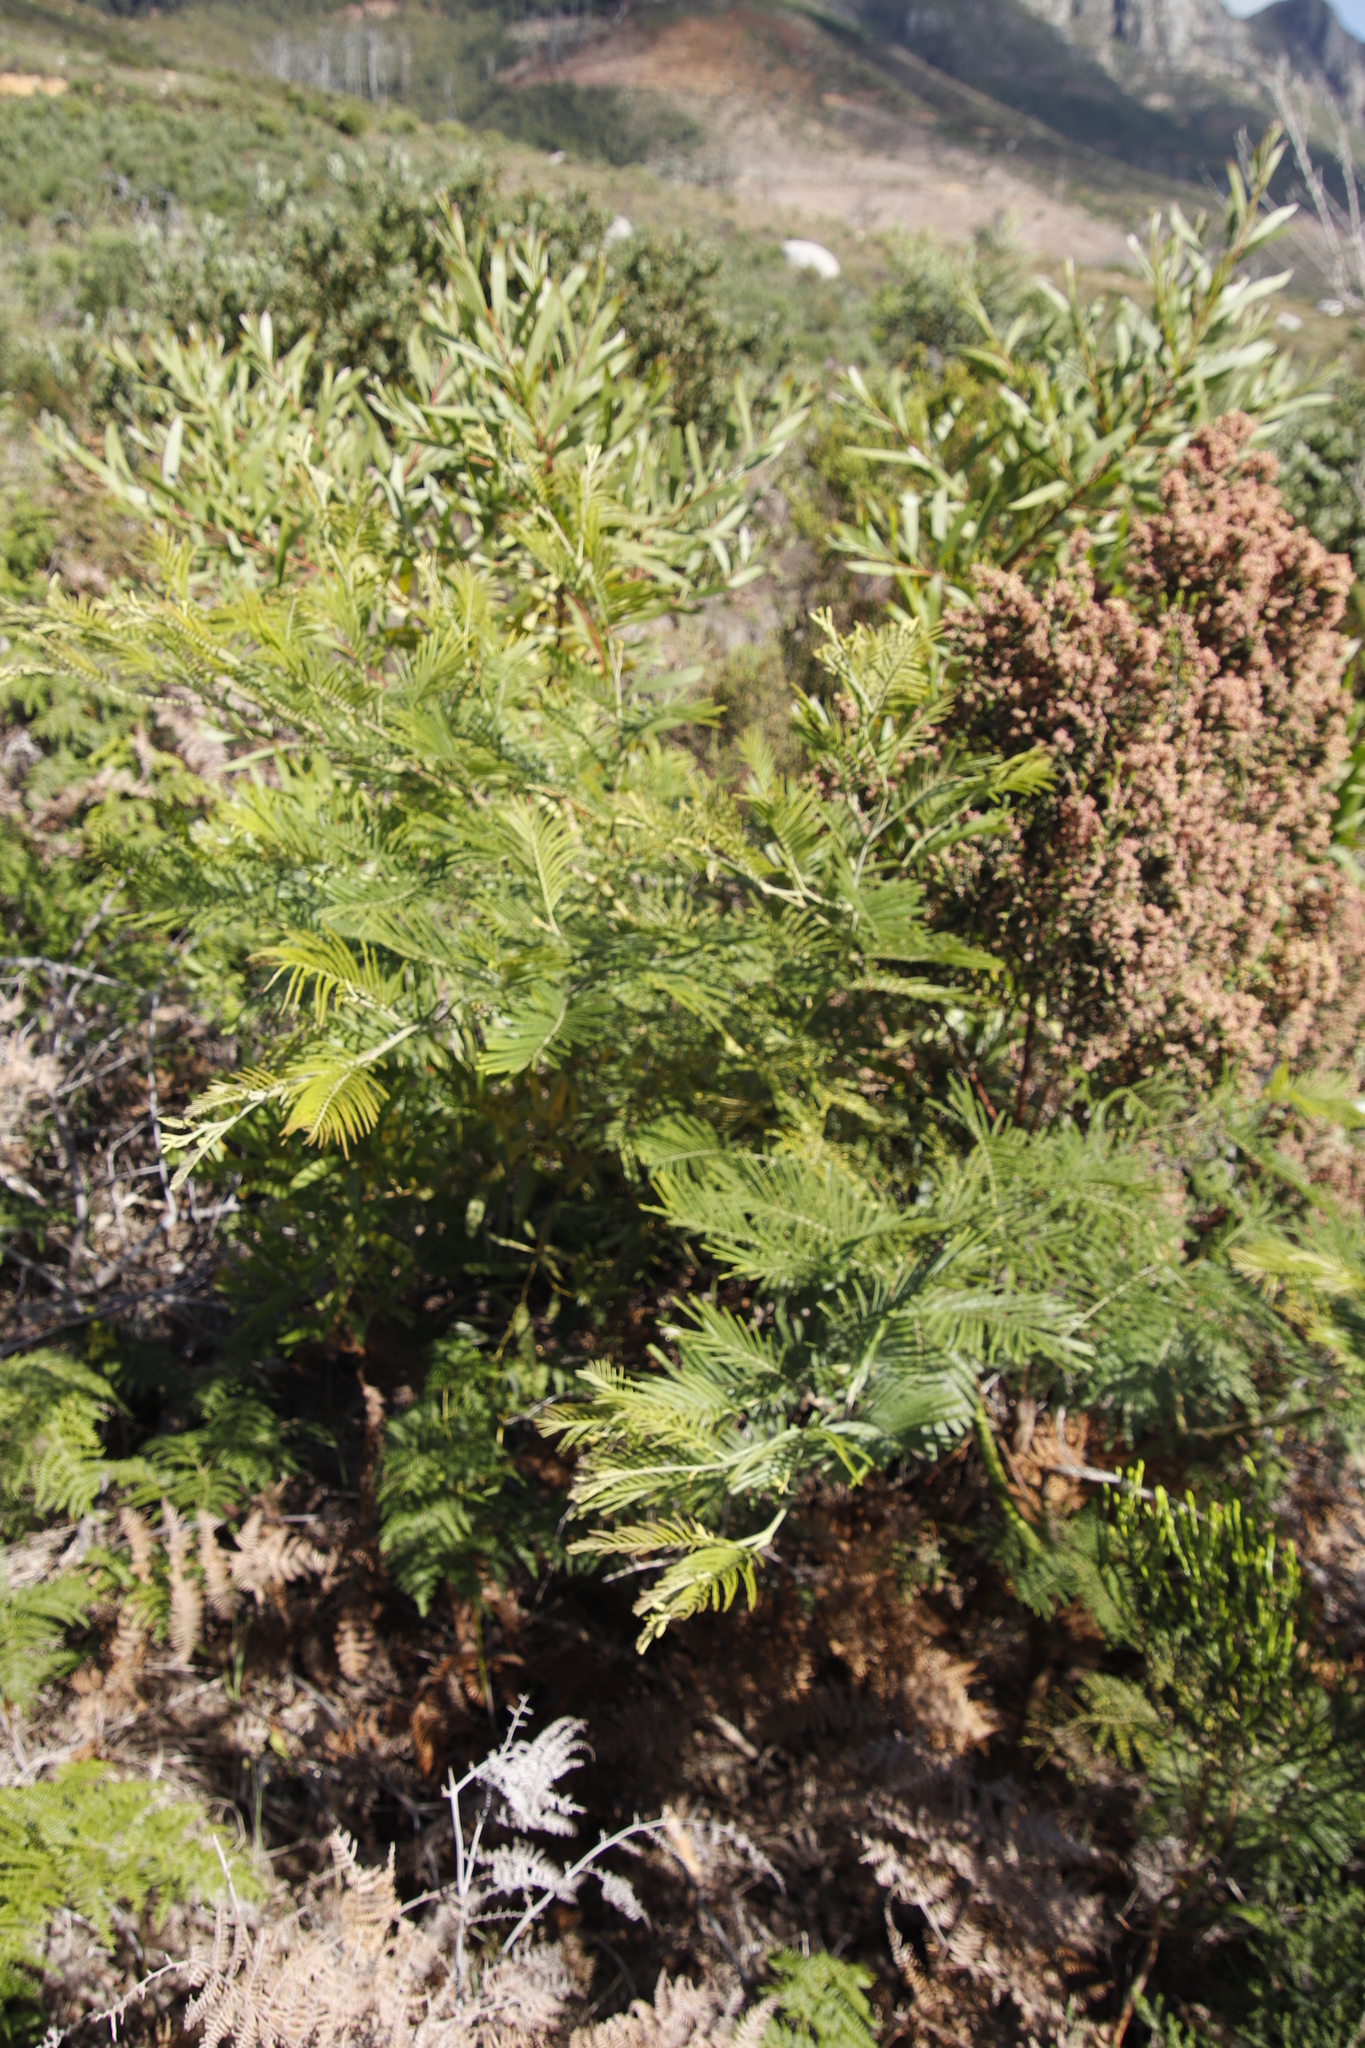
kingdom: Plantae
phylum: Tracheophyta
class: Magnoliopsida
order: Fabales
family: Fabaceae
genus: Acacia
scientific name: Acacia mearnsii
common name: Black wattle
